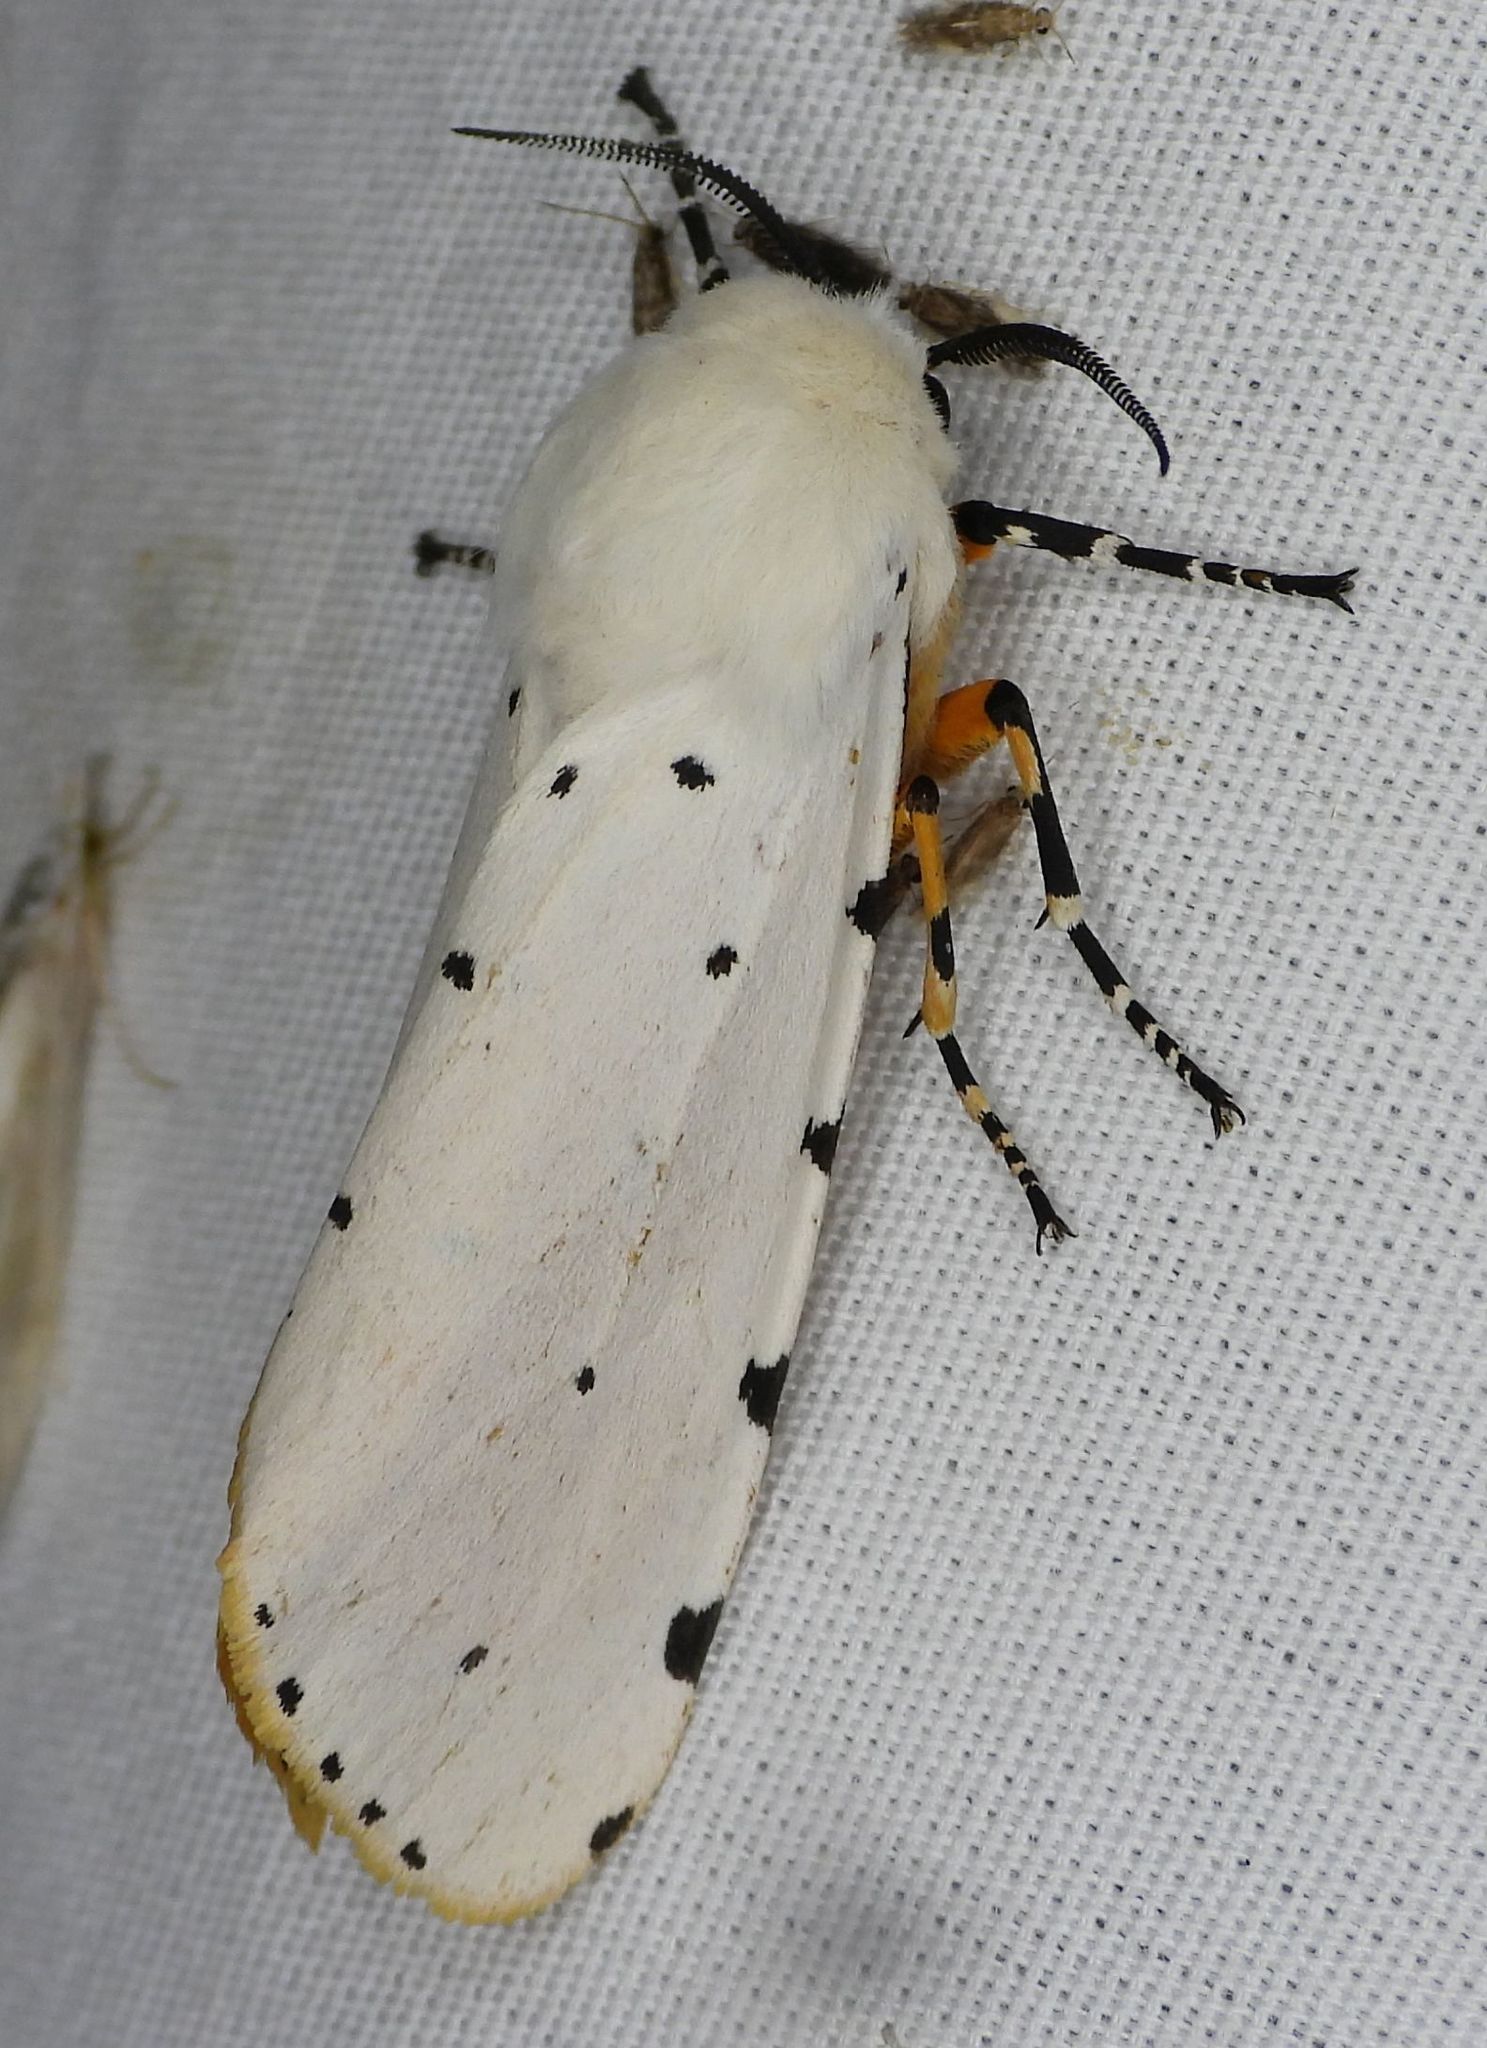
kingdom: Animalia
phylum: Arthropoda
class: Insecta
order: Lepidoptera
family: Erebidae
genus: Estigmene
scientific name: Estigmene acrea
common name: Salt marsh moth
